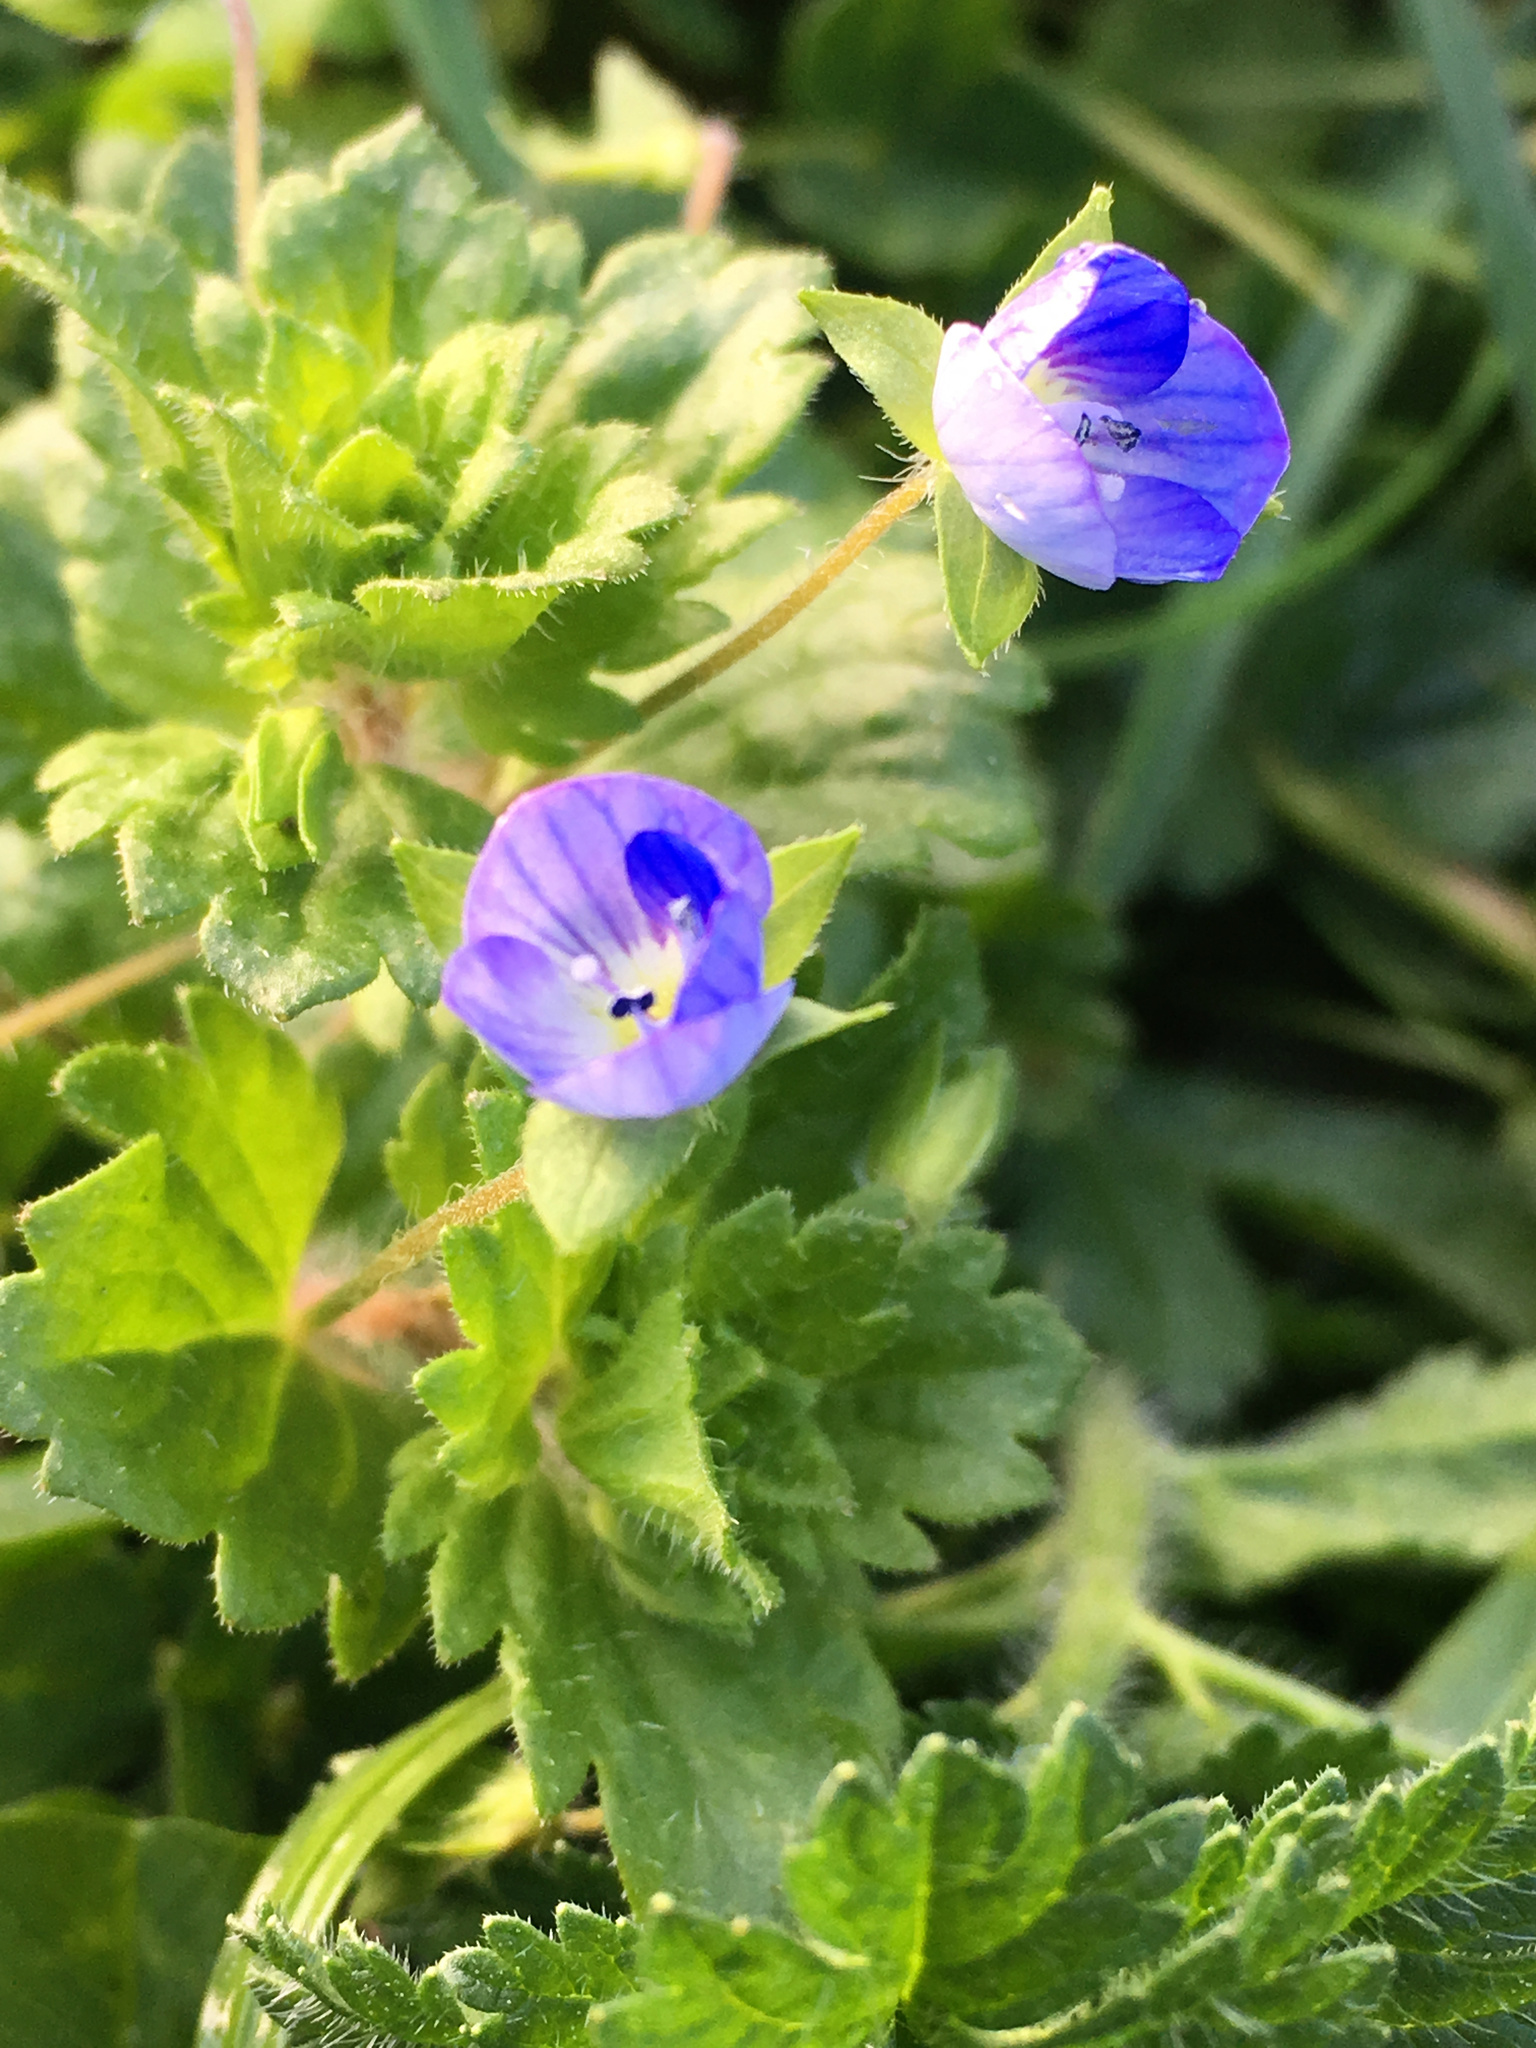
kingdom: Plantae
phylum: Tracheophyta
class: Magnoliopsida
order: Lamiales
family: Plantaginaceae
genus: Veronica
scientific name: Veronica persica
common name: Common field-speedwell
